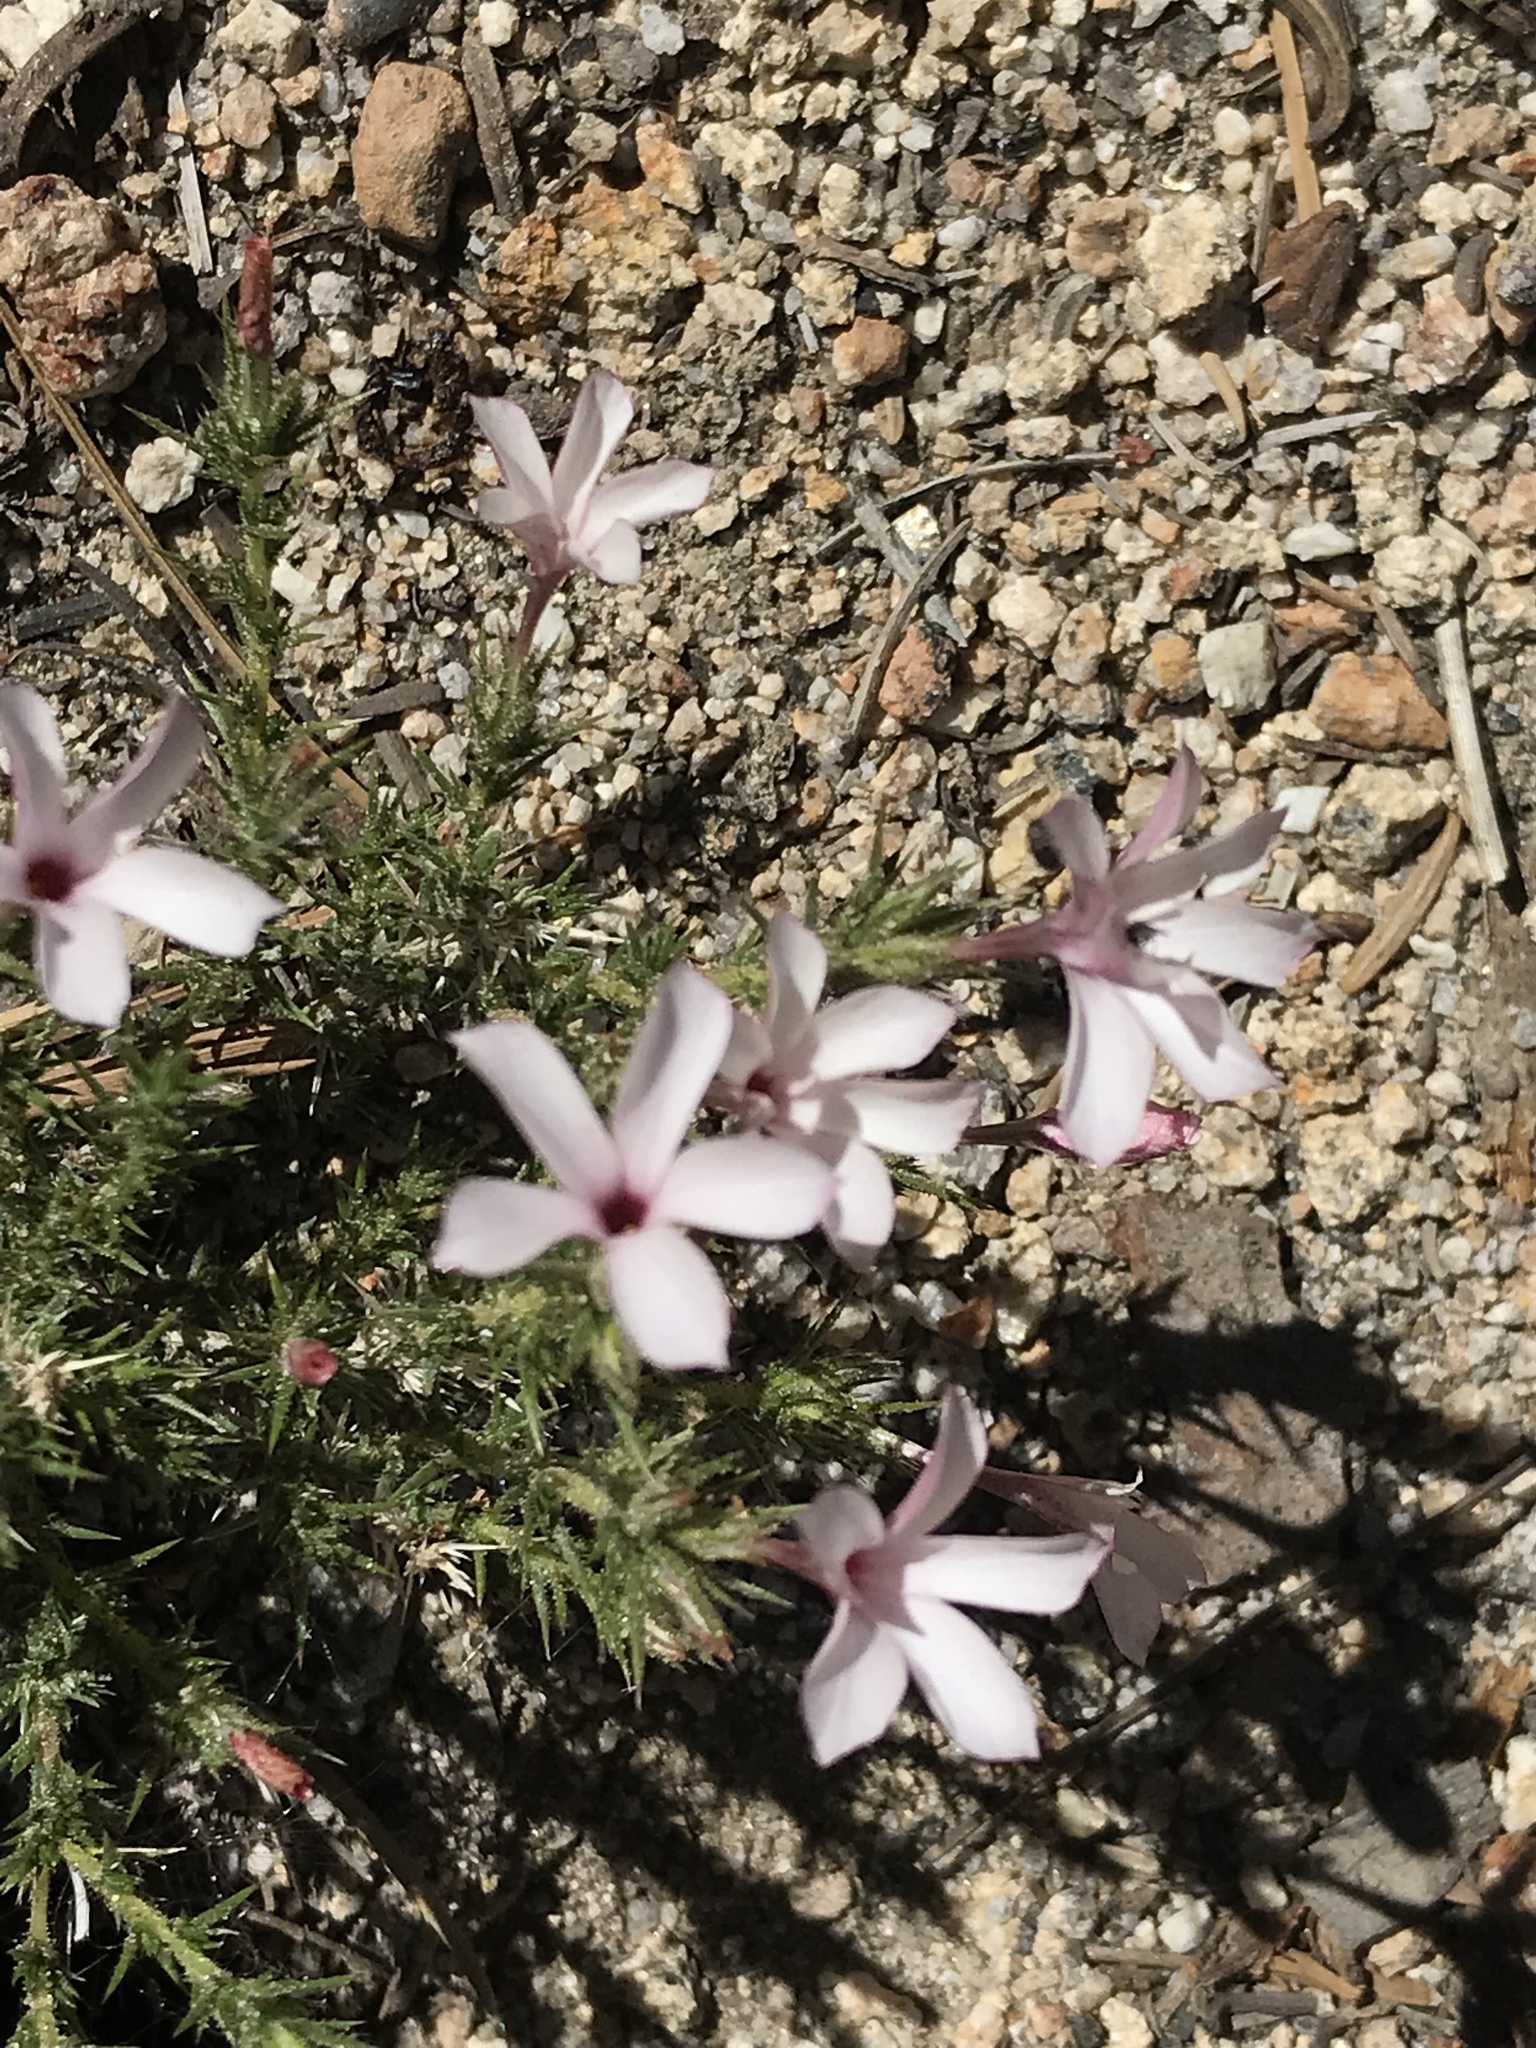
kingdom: Plantae
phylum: Tracheophyta
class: Magnoliopsida
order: Ericales
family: Polemoniaceae
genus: Linanthus
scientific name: Linanthus pungens
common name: Granite prickly phlox
